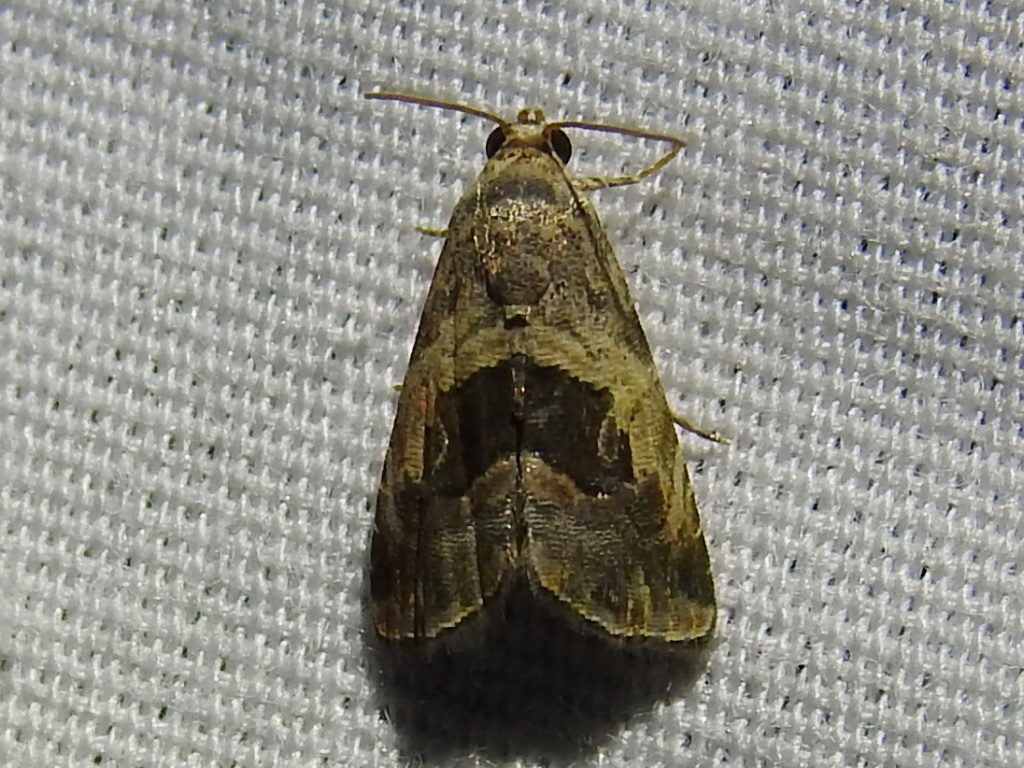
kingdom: Animalia
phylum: Arthropoda
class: Insecta
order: Lepidoptera
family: Noctuidae
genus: Tripudia
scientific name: Tripudia quadrifera
